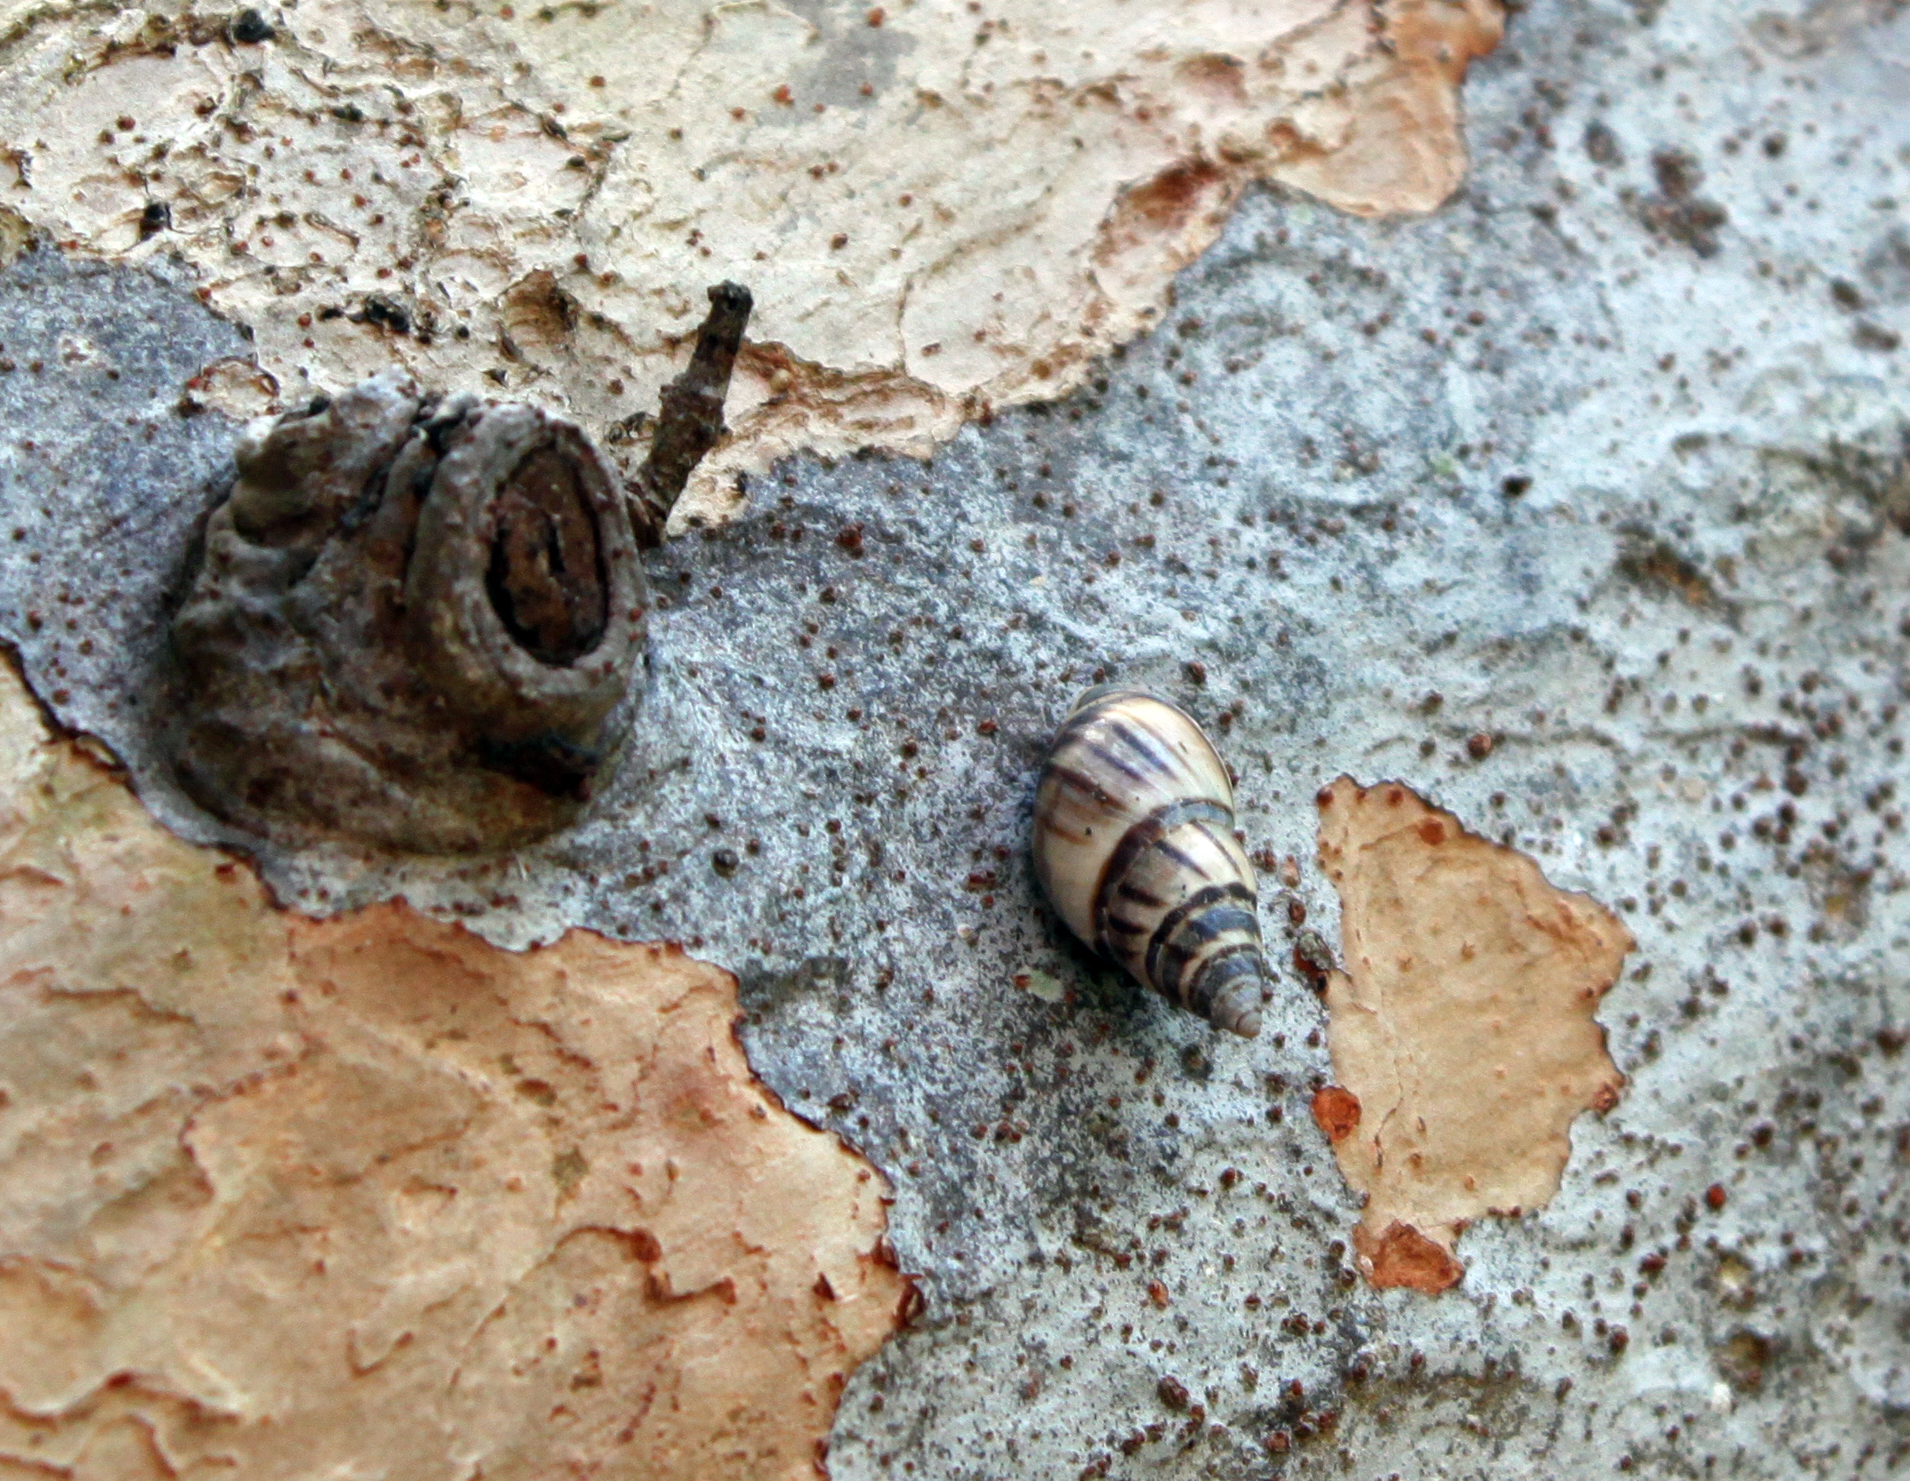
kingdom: Animalia
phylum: Mollusca
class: Gastropoda
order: Stylommatophora
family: Bulimulidae
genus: Drymaeus
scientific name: Drymaeus
